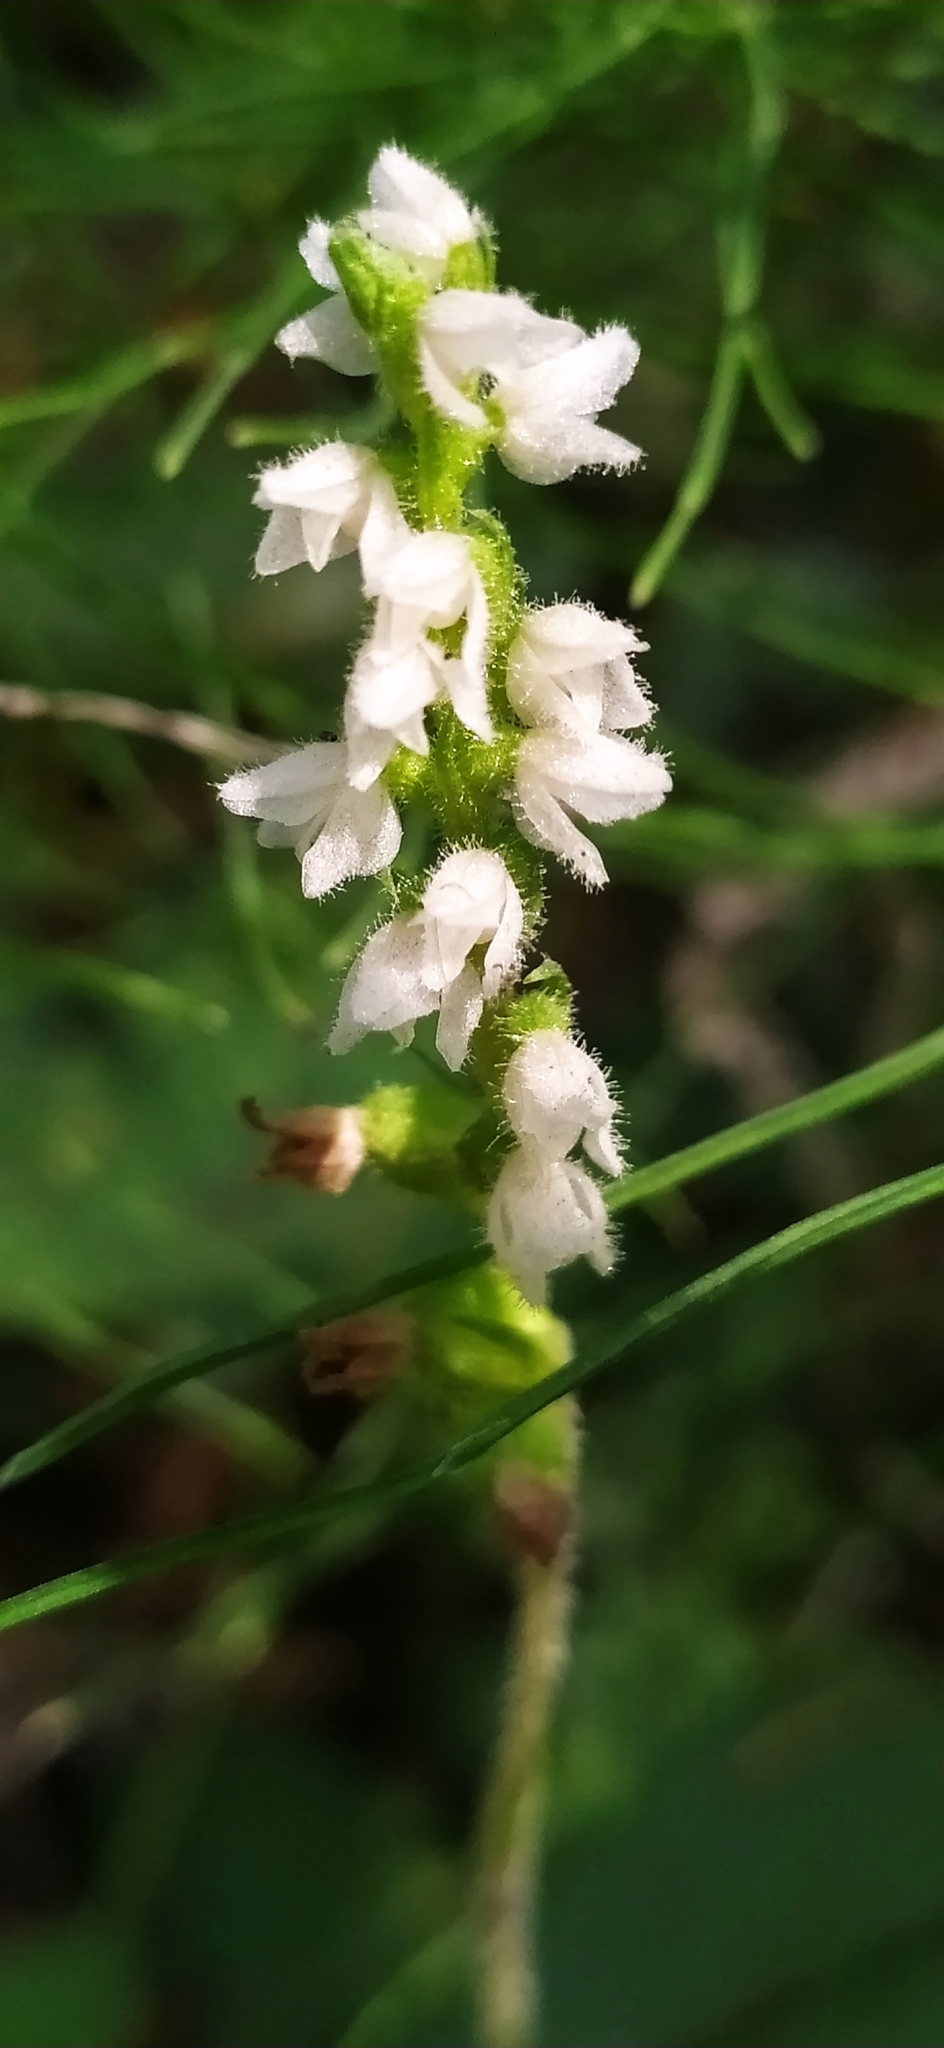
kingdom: Plantae
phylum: Tracheophyta
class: Liliopsida
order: Asparagales
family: Orchidaceae
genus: Goodyera
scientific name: Goodyera repens
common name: Creeping lady's-tresses
